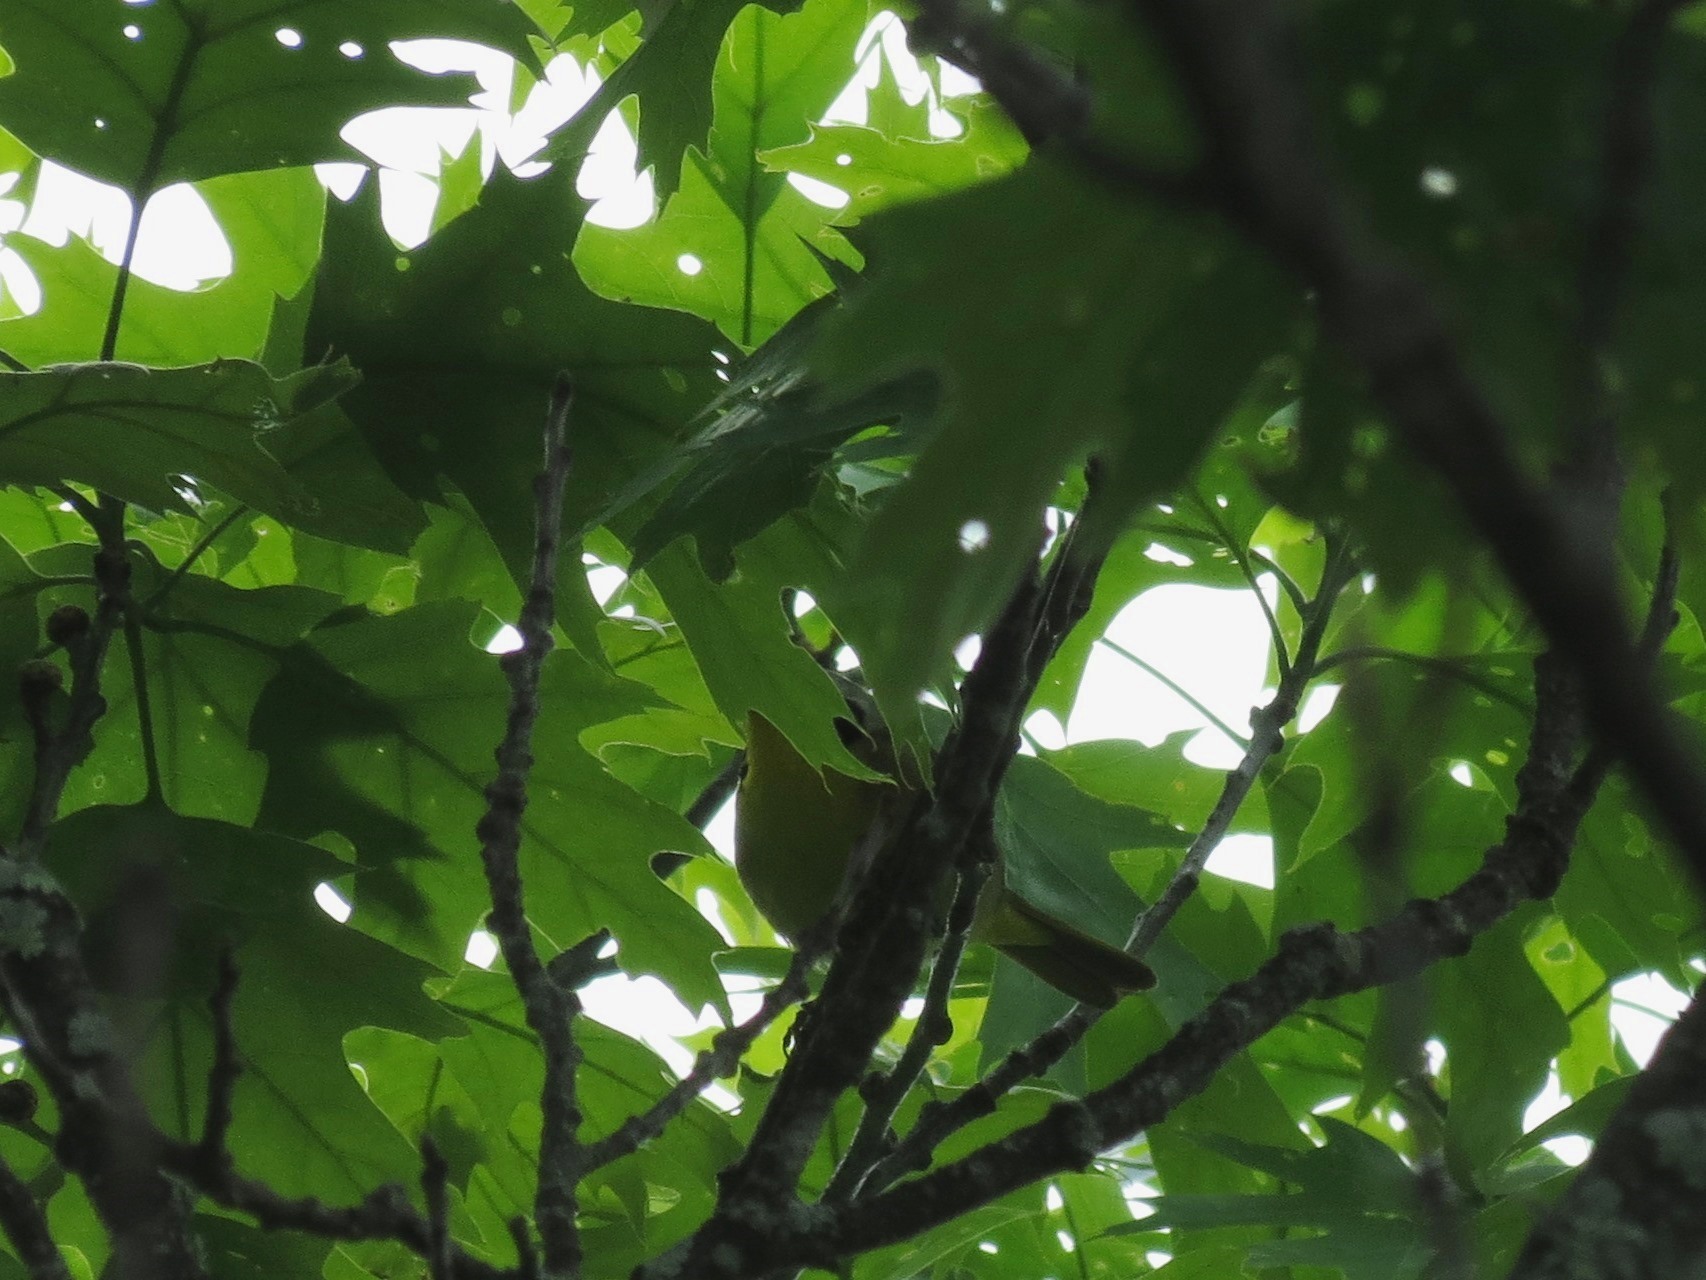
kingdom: Animalia
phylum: Chordata
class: Aves
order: Passeriformes
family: Parulidae
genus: Geothlypis
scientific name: Geothlypis trichas
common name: Common yellowthroat
